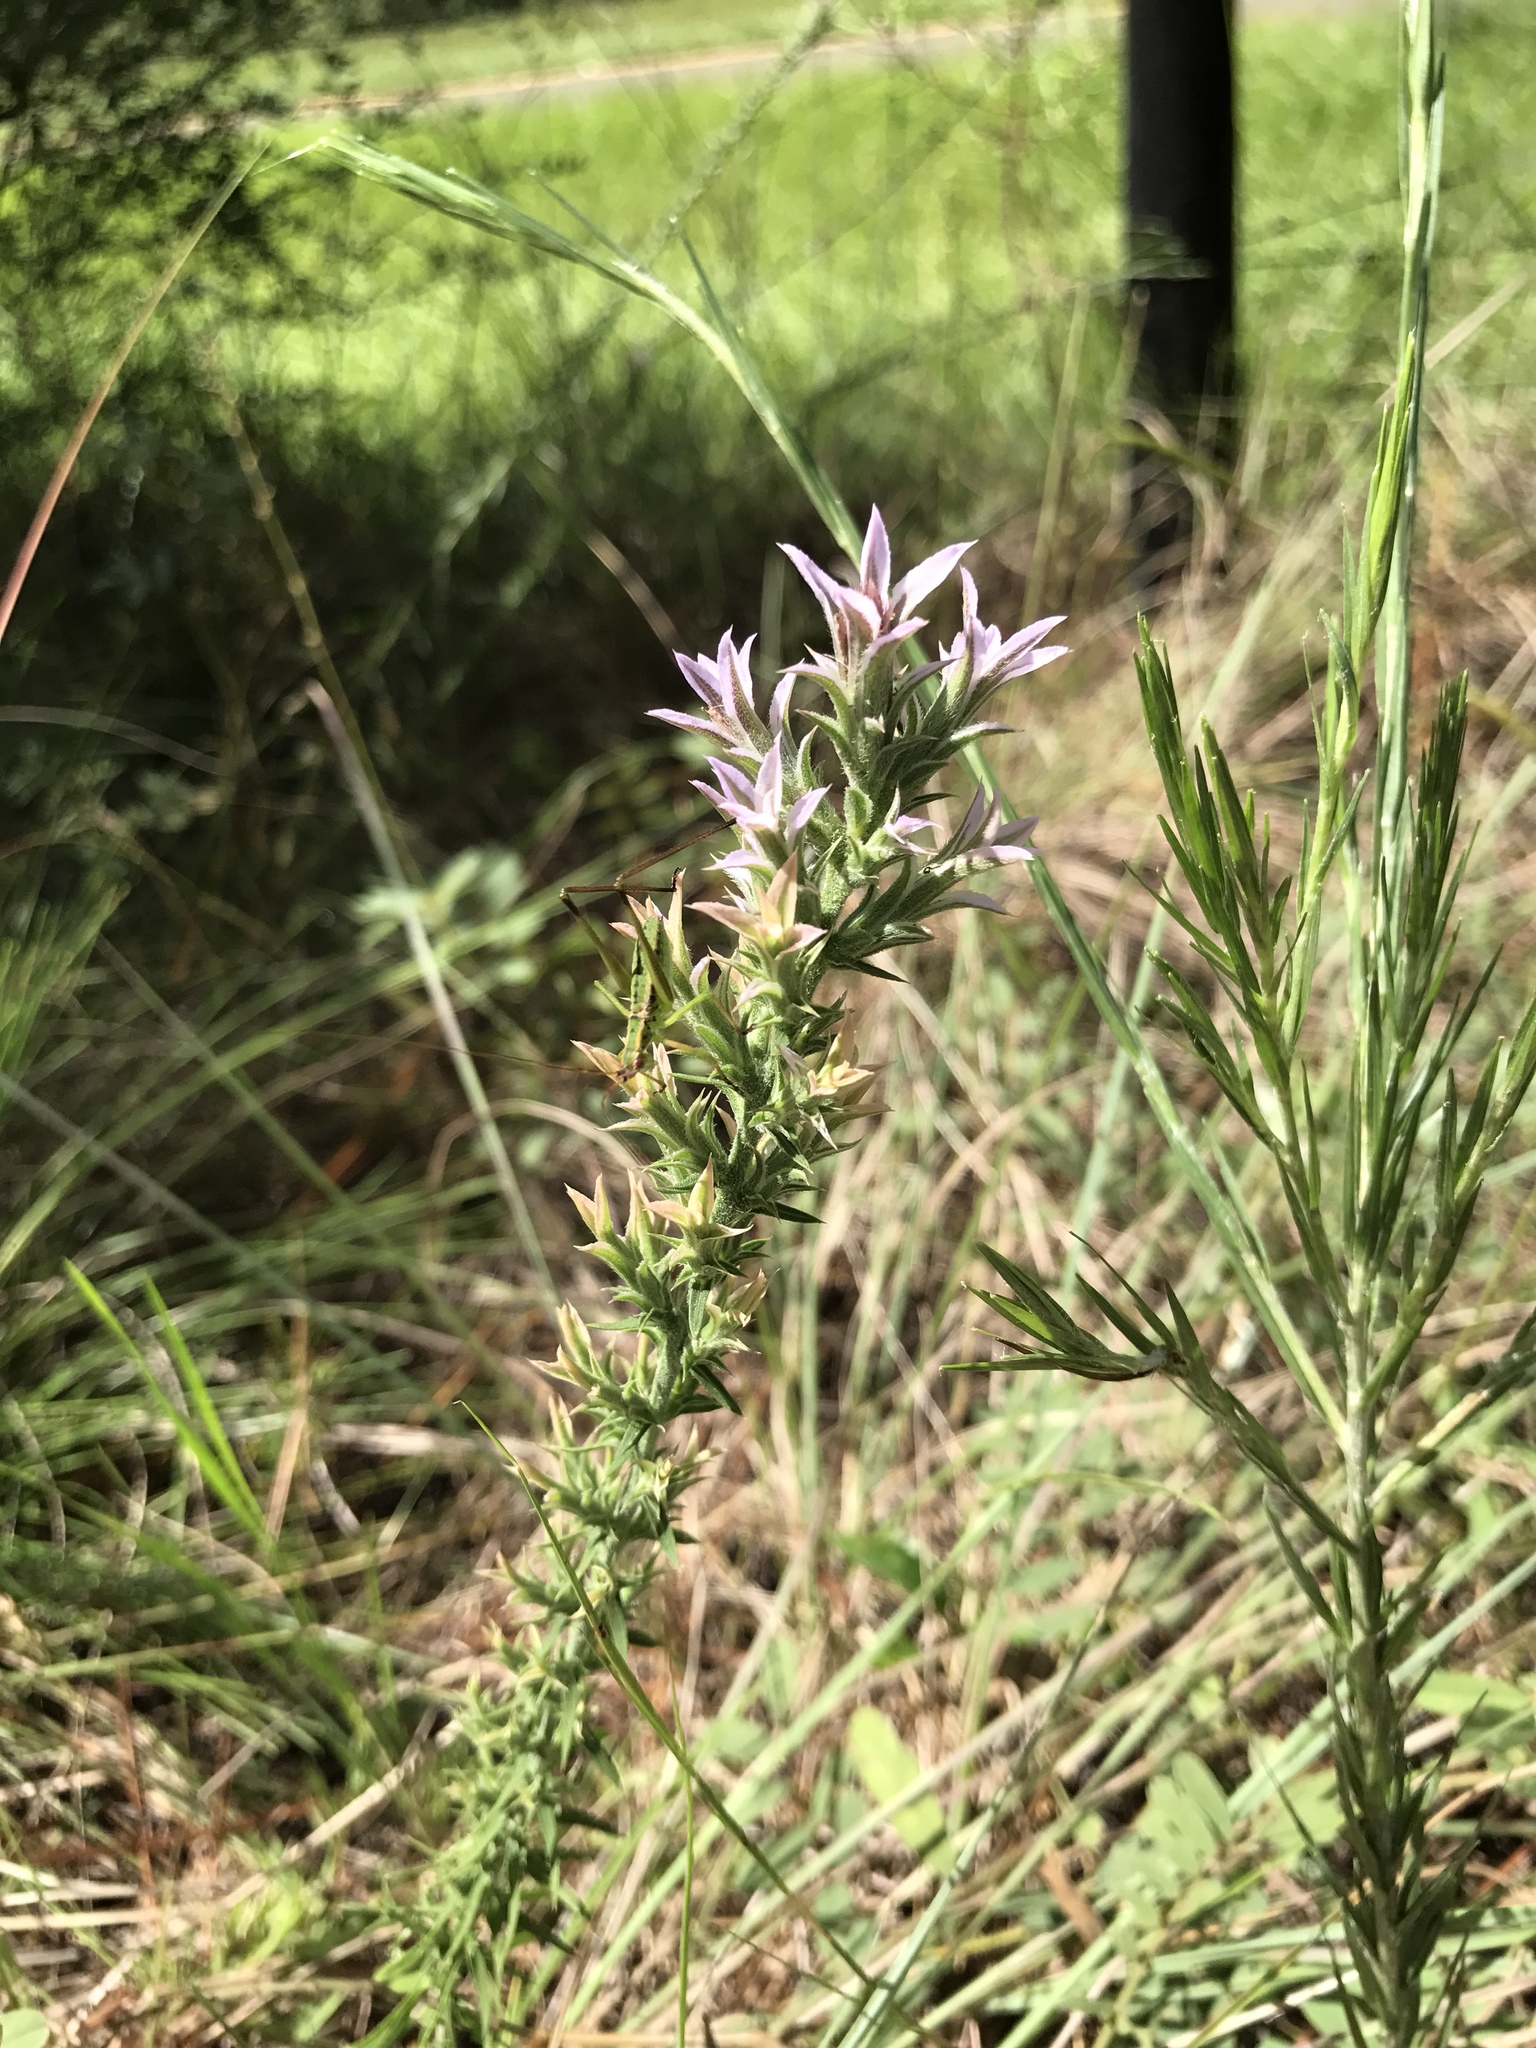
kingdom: Plantae
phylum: Tracheophyta
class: Magnoliopsida
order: Asterales
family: Asteraceae
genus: Liatris
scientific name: Liatris bridgesii
